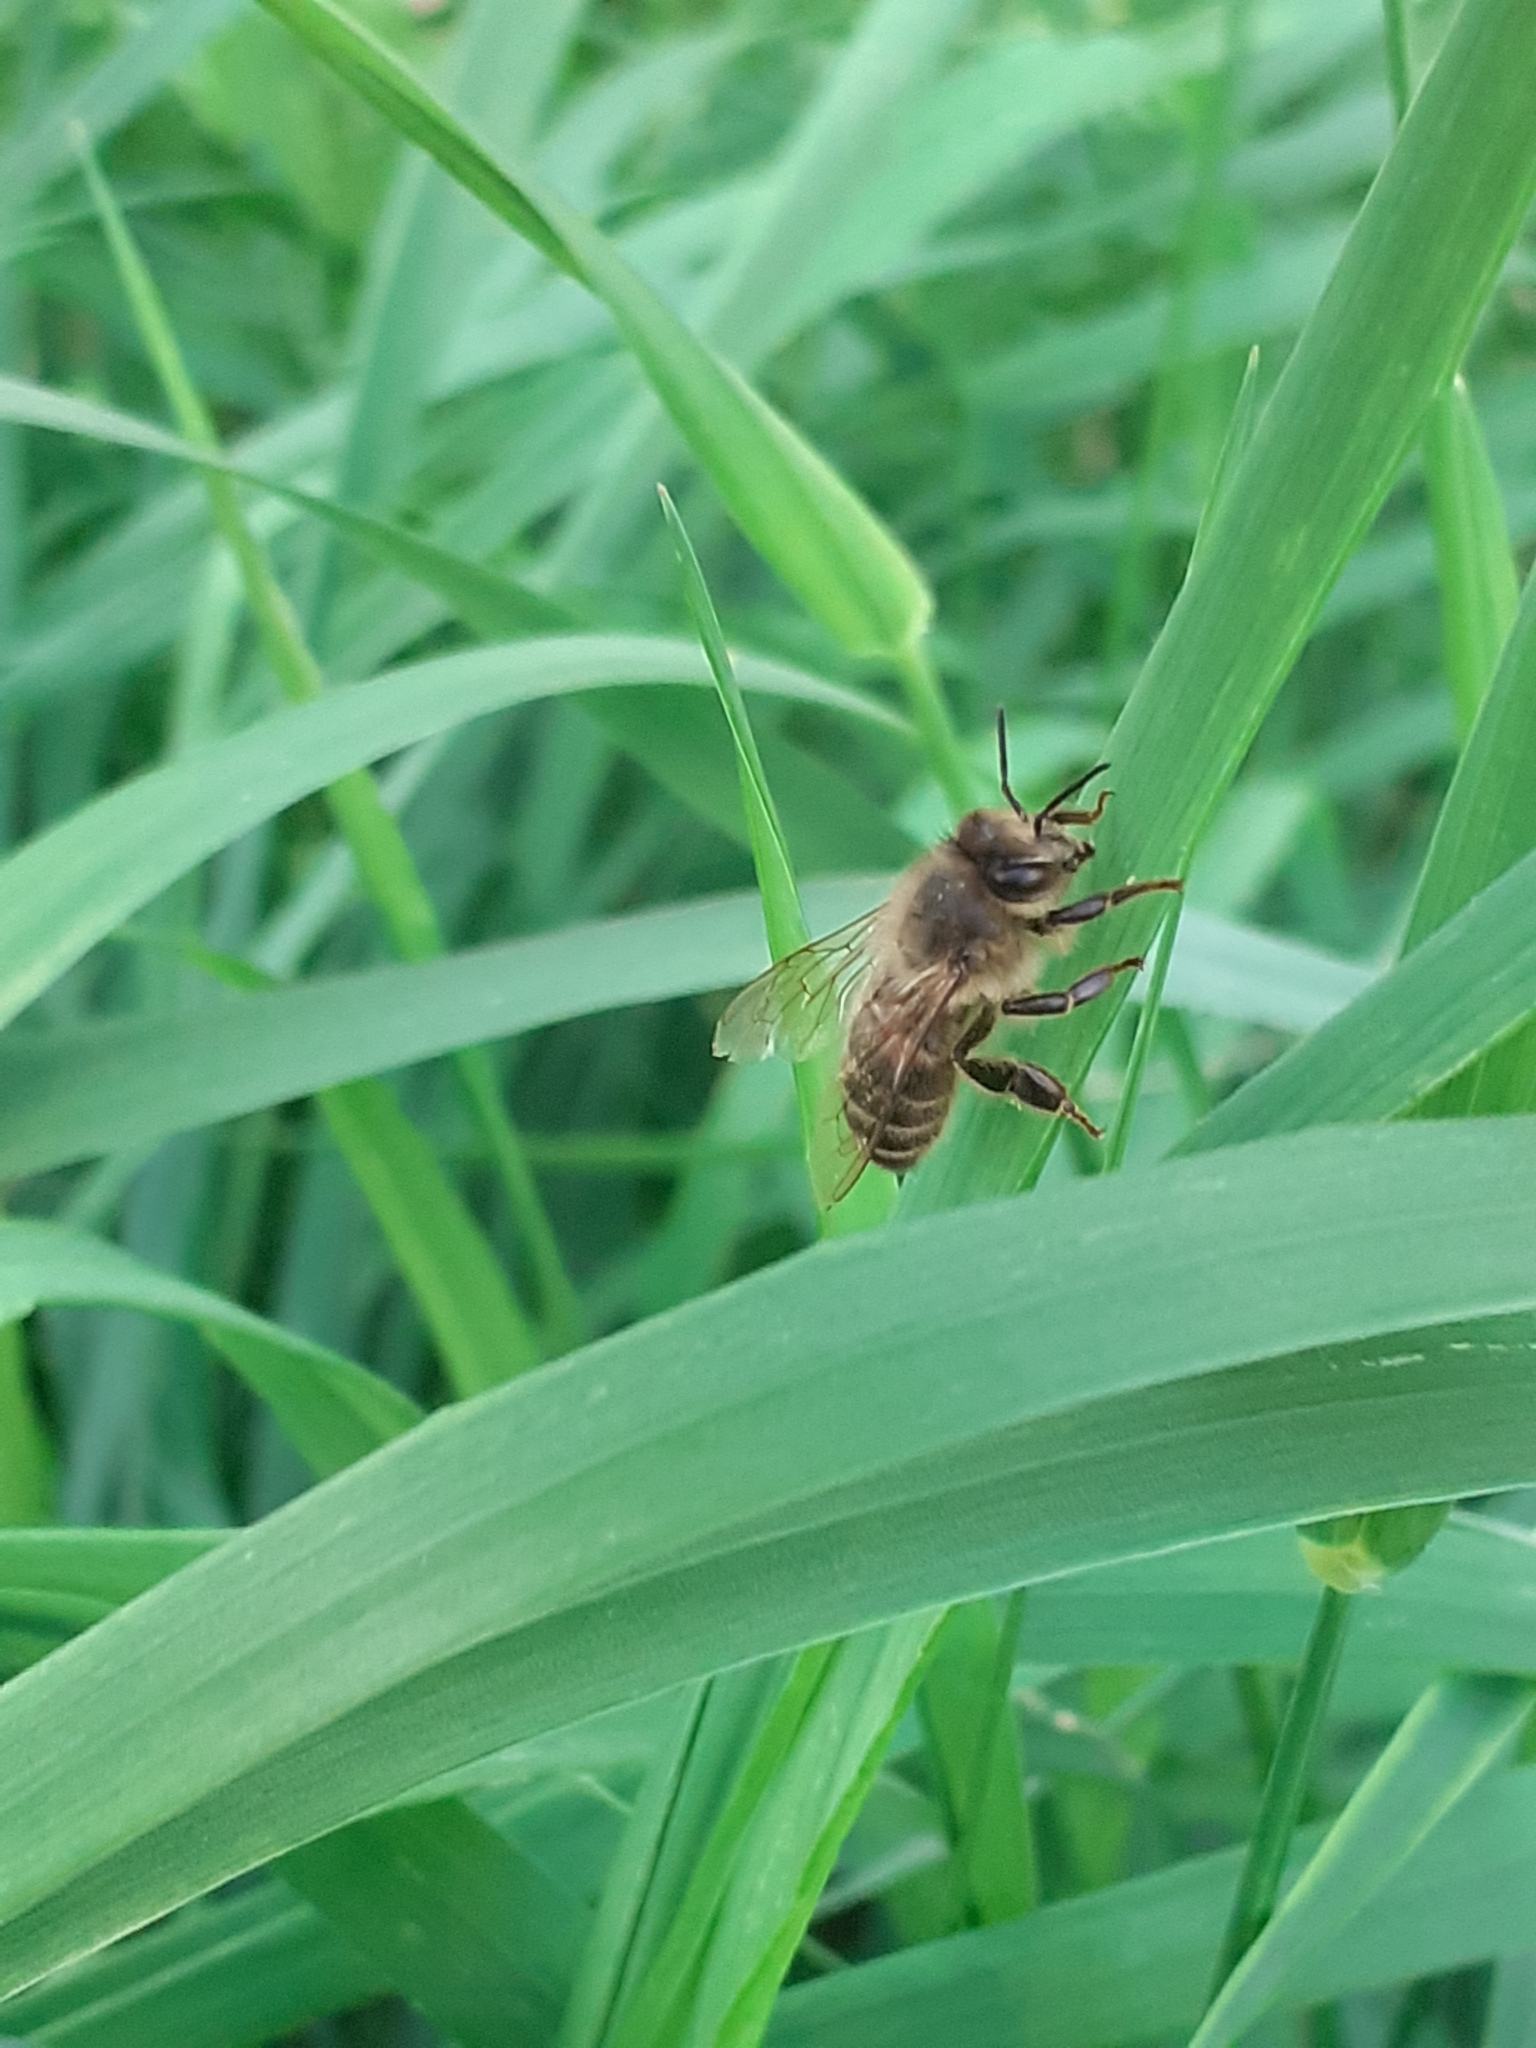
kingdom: Animalia
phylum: Arthropoda
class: Insecta
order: Hymenoptera
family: Apidae
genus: Apis
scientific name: Apis mellifera
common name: Honey bee
